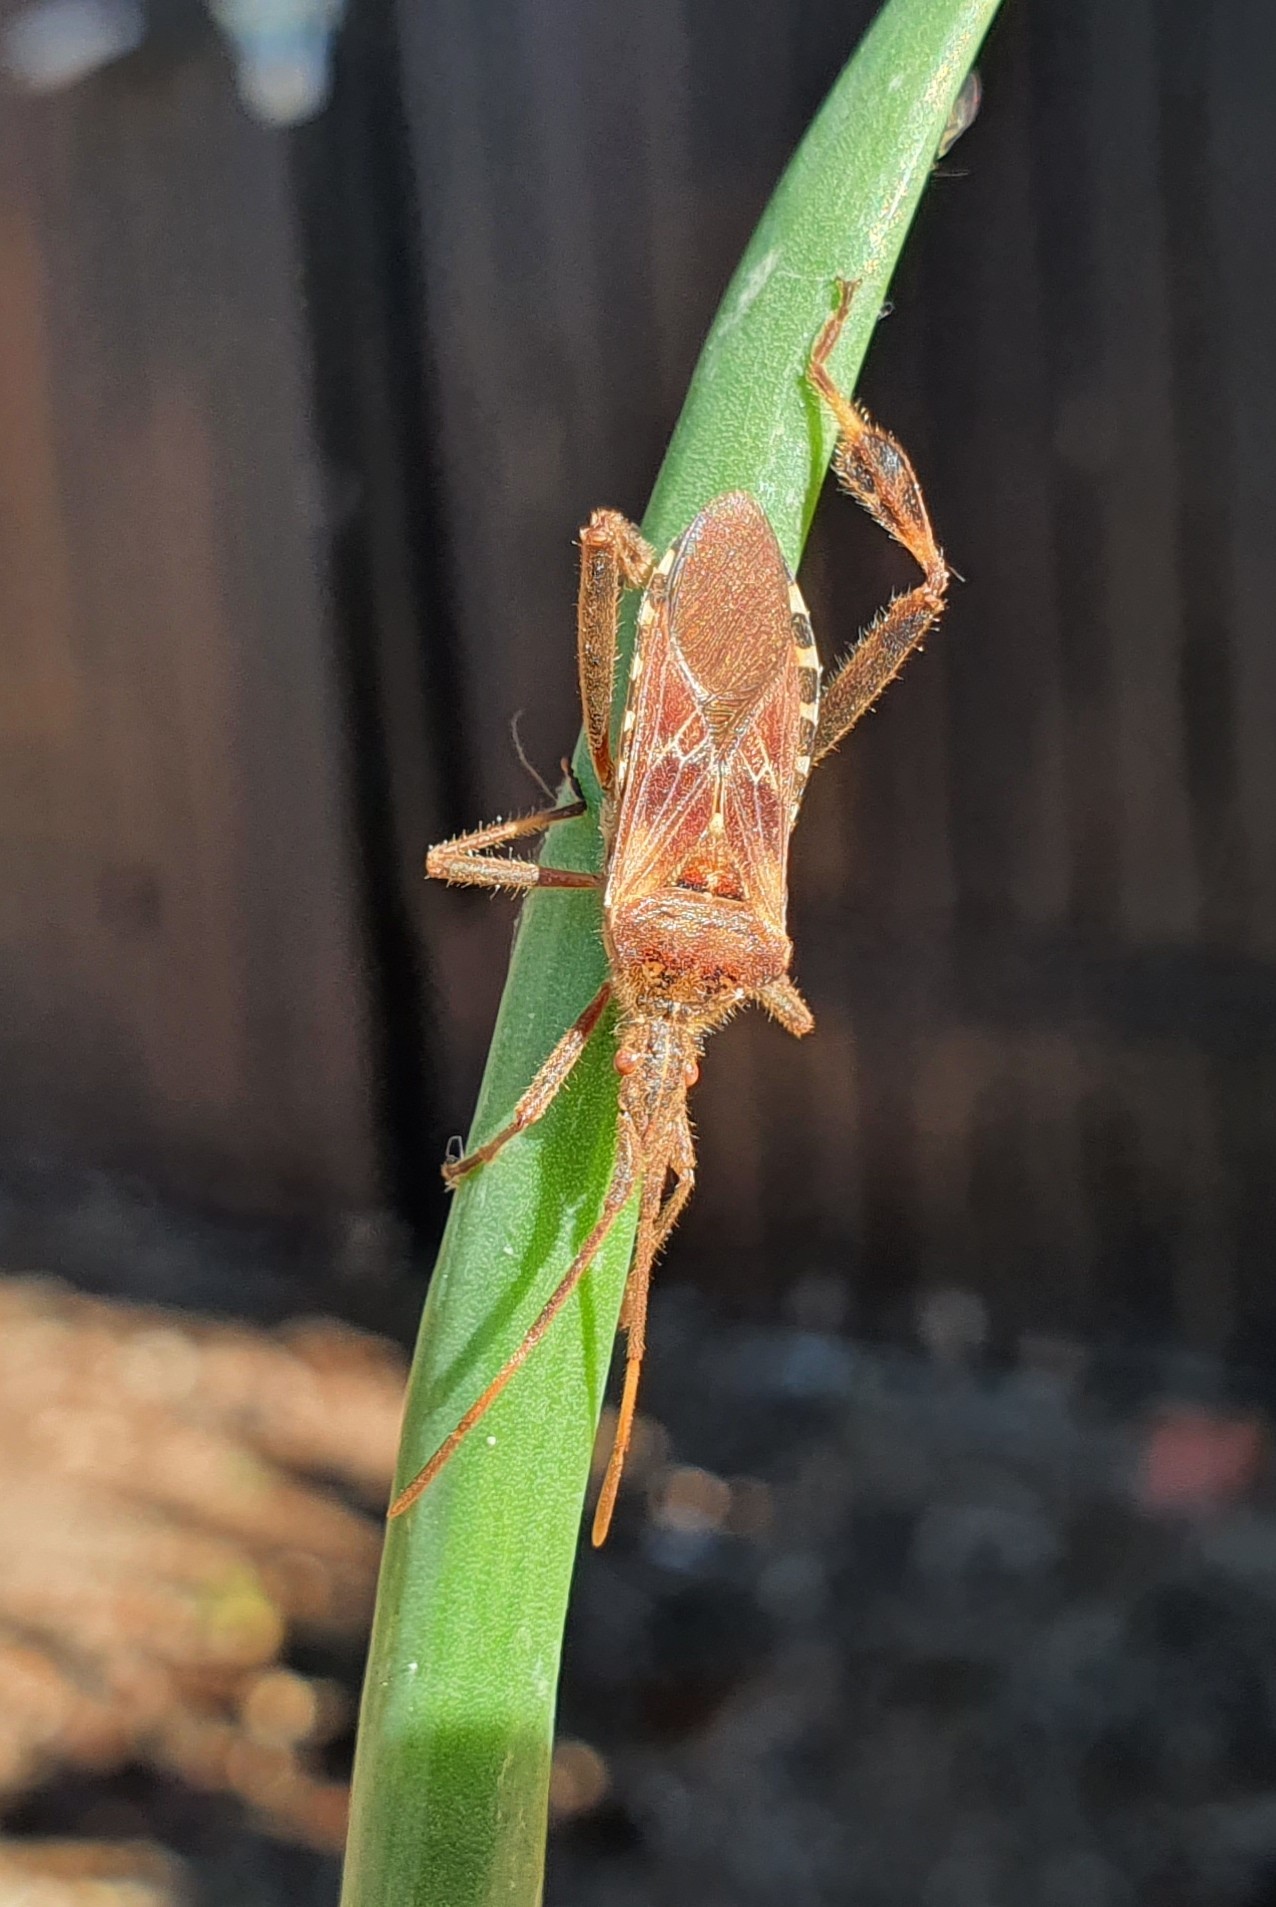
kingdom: Animalia
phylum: Arthropoda
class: Insecta
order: Hemiptera
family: Coreidae
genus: Leptoglossus
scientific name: Leptoglossus occidentalis
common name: Western conifer-seed bug
